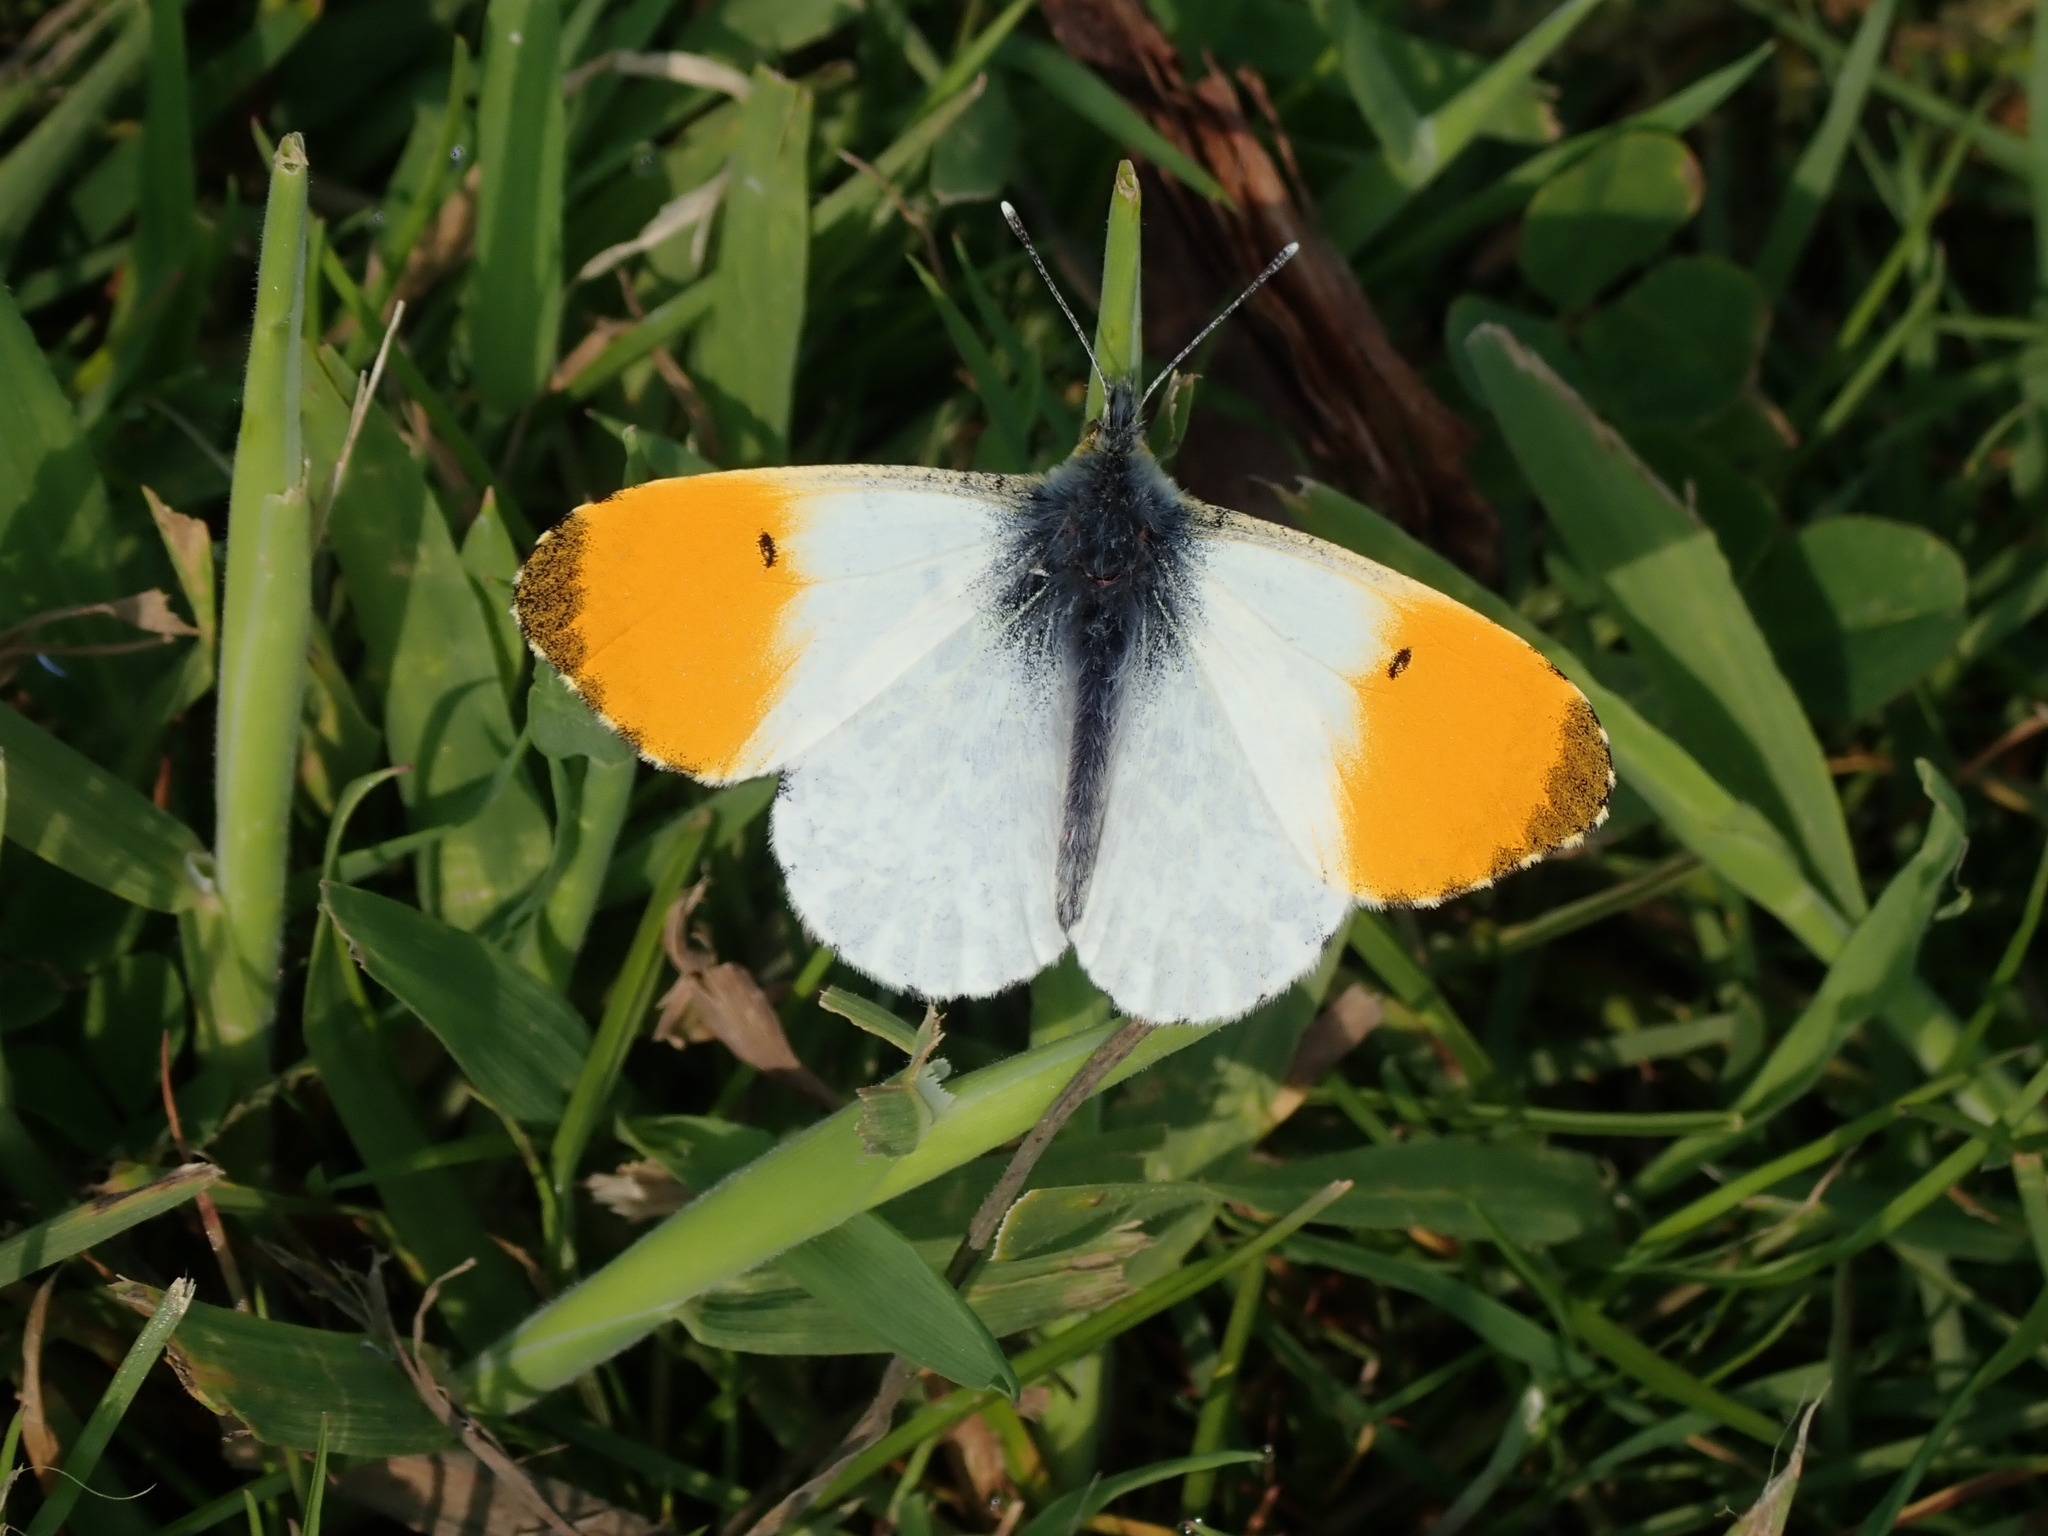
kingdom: Animalia
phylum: Arthropoda
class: Insecta
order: Lepidoptera
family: Pieridae
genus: Anthocharis
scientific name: Anthocharis cardamines
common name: Orange-tip
